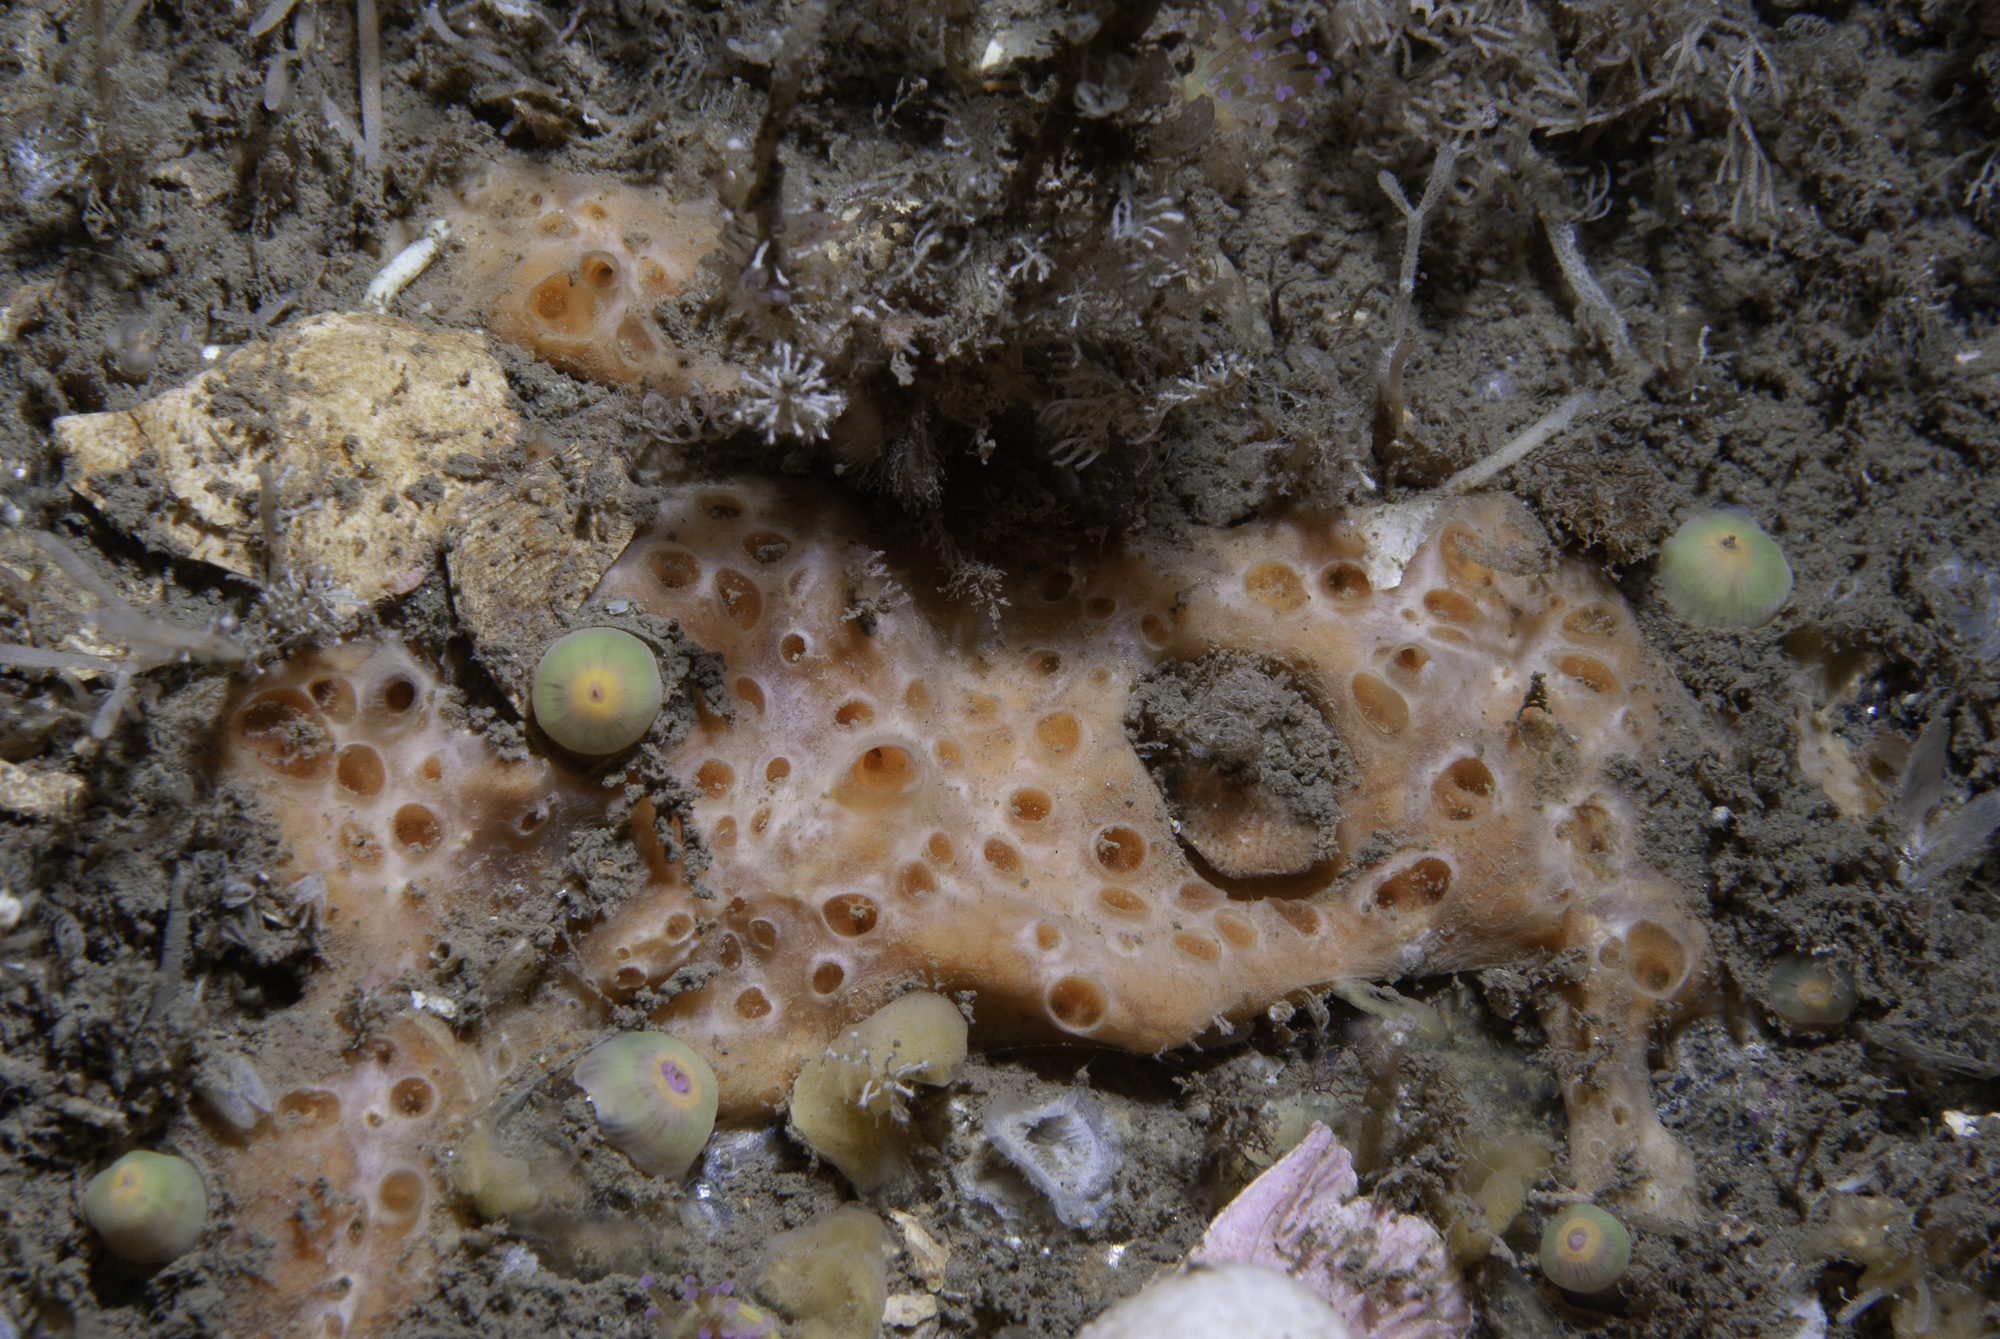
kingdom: Animalia
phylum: Porifera
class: Demospongiae
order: Poecilosclerida
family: Hymedesmiidae
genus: Hemimycale
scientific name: Hemimycale columella
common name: Crater sponge
